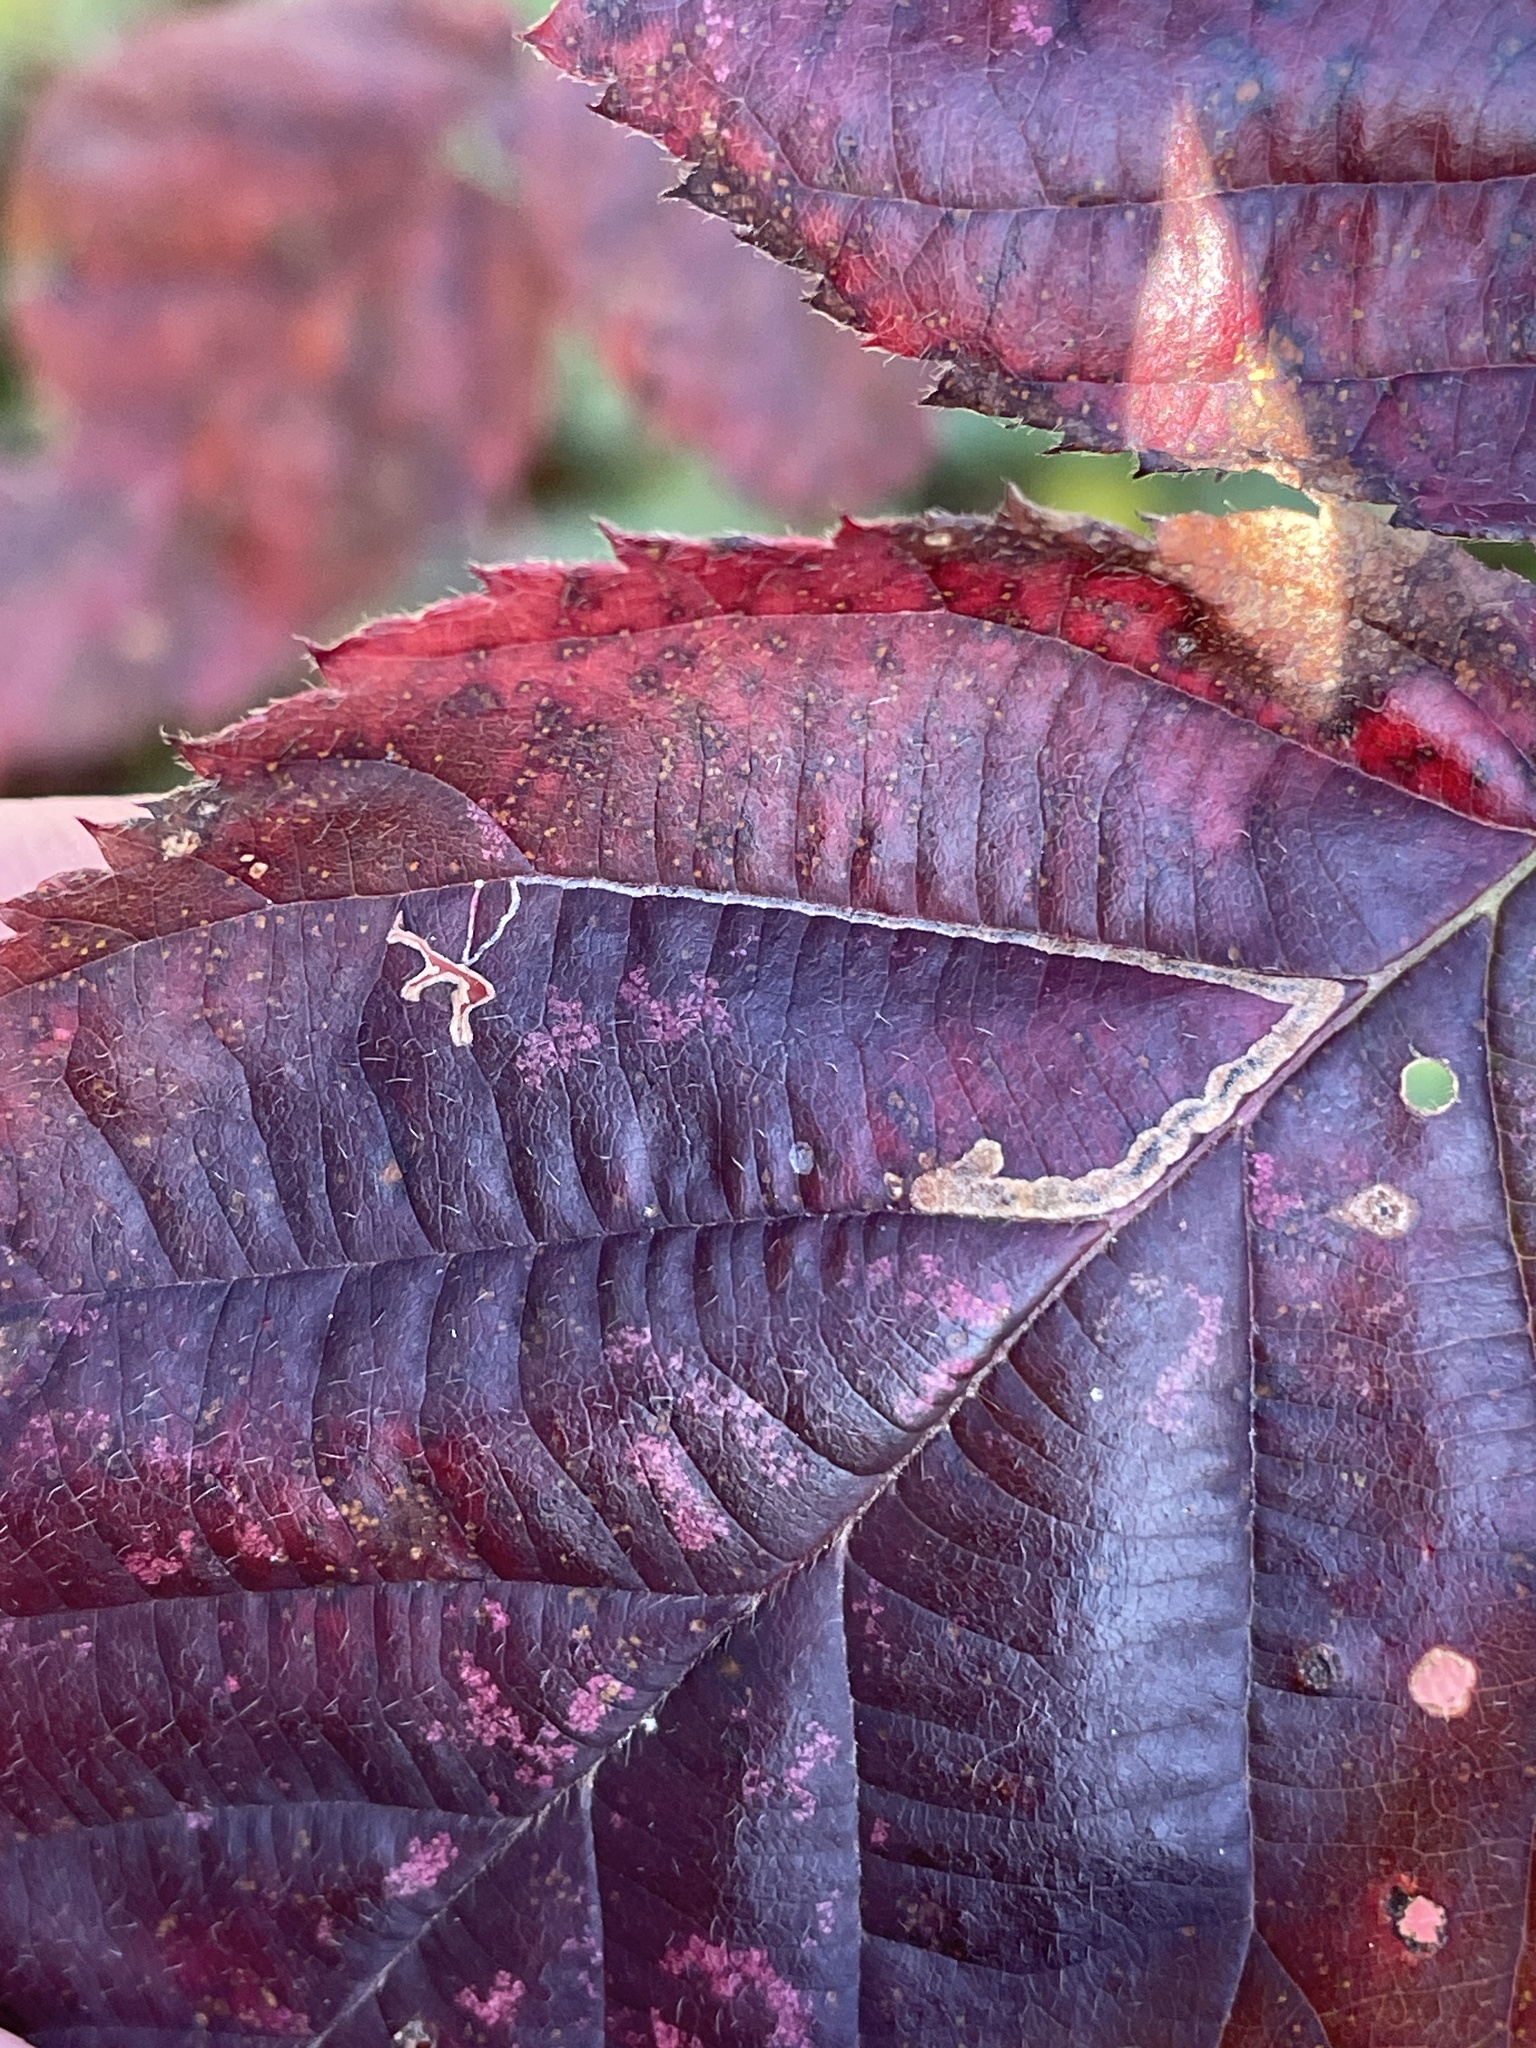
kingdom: Animalia
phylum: Arthropoda
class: Insecta
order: Lepidoptera
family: Nepticulidae
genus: Stigmella
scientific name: Stigmella villosella
